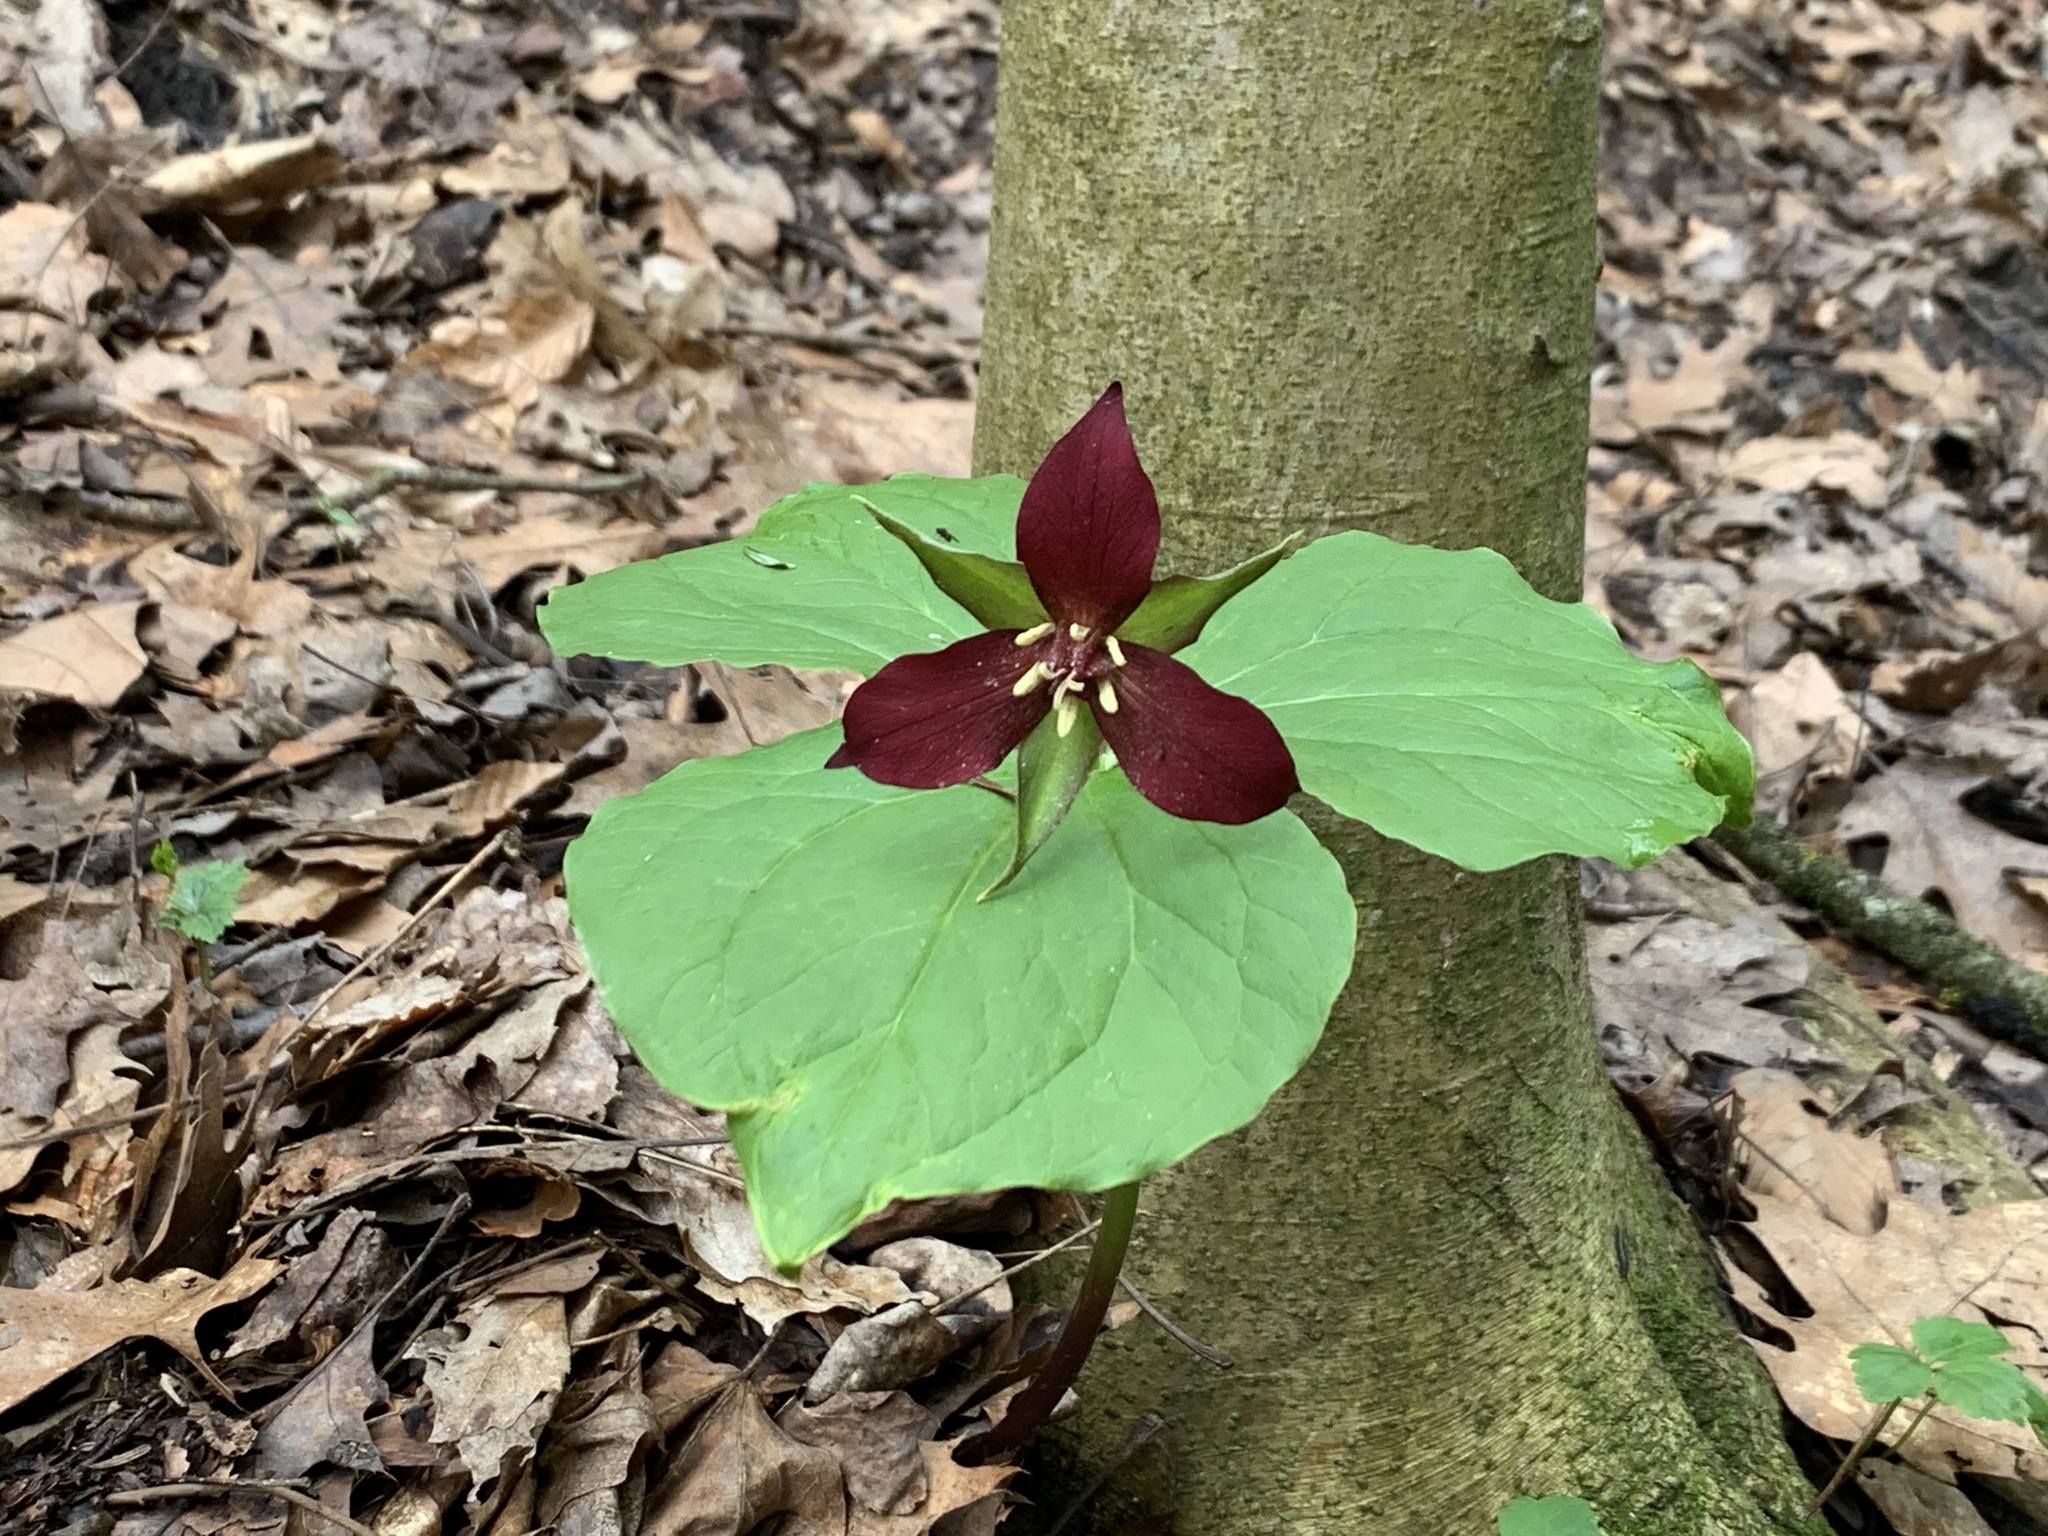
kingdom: Plantae
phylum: Tracheophyta
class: Liliopsida
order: Liliales
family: Melanthiaceae
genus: Trillium
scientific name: Trillium erectum
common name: Purple trillium
